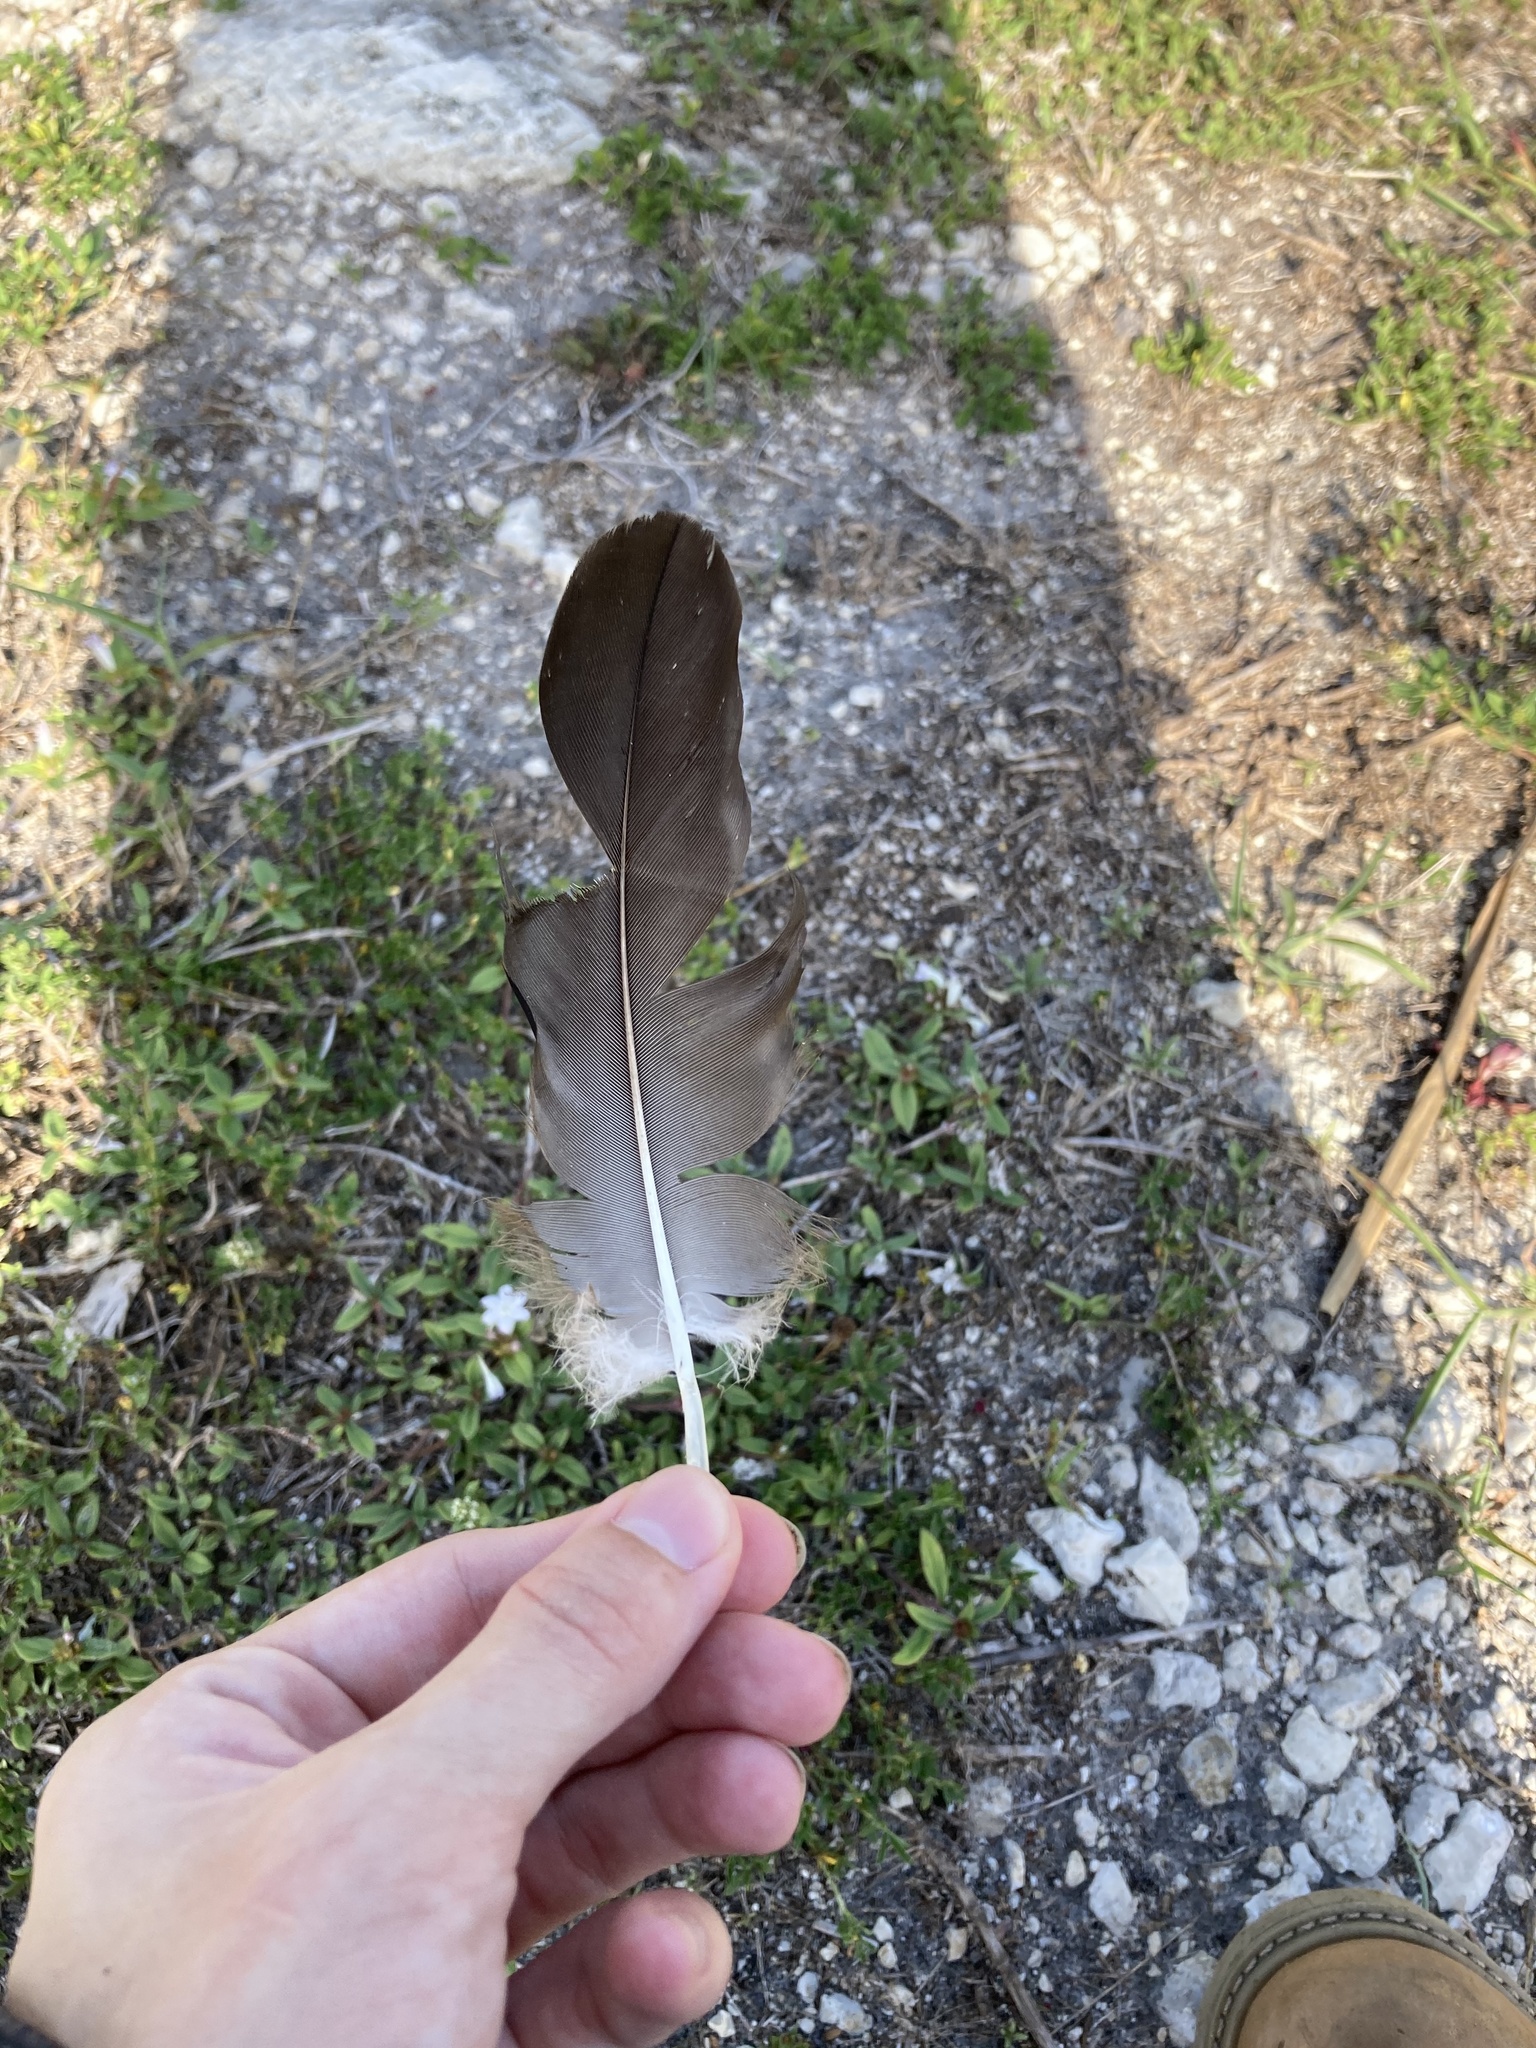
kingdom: Animalia
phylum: Chordata
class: Aves
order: Accipitriformes
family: Cathartidae
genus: Coragyps
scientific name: Coragyps atratus
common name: Black vulture
